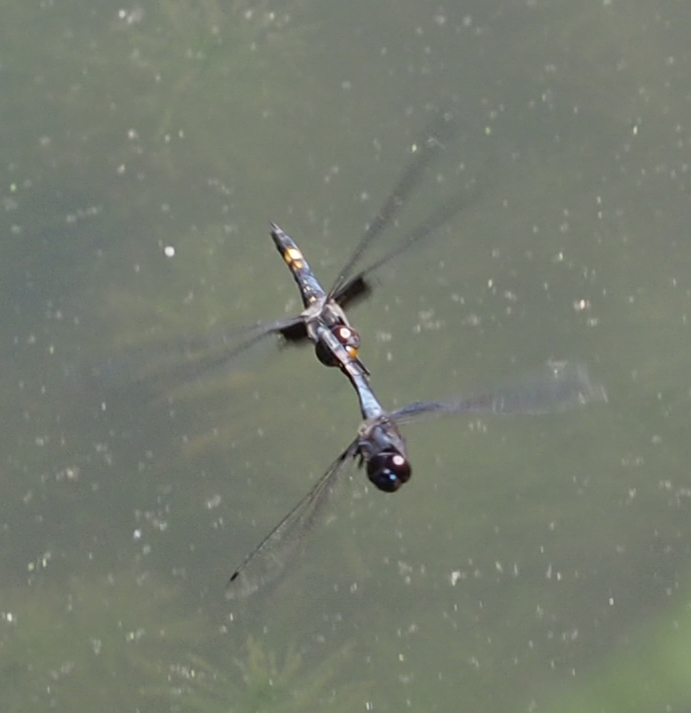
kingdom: Animalia
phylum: Arthropoda
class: Insecta
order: Odonata
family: Libellulidae
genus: Tramea
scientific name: Tramea lacerata
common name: Black saddlebags
